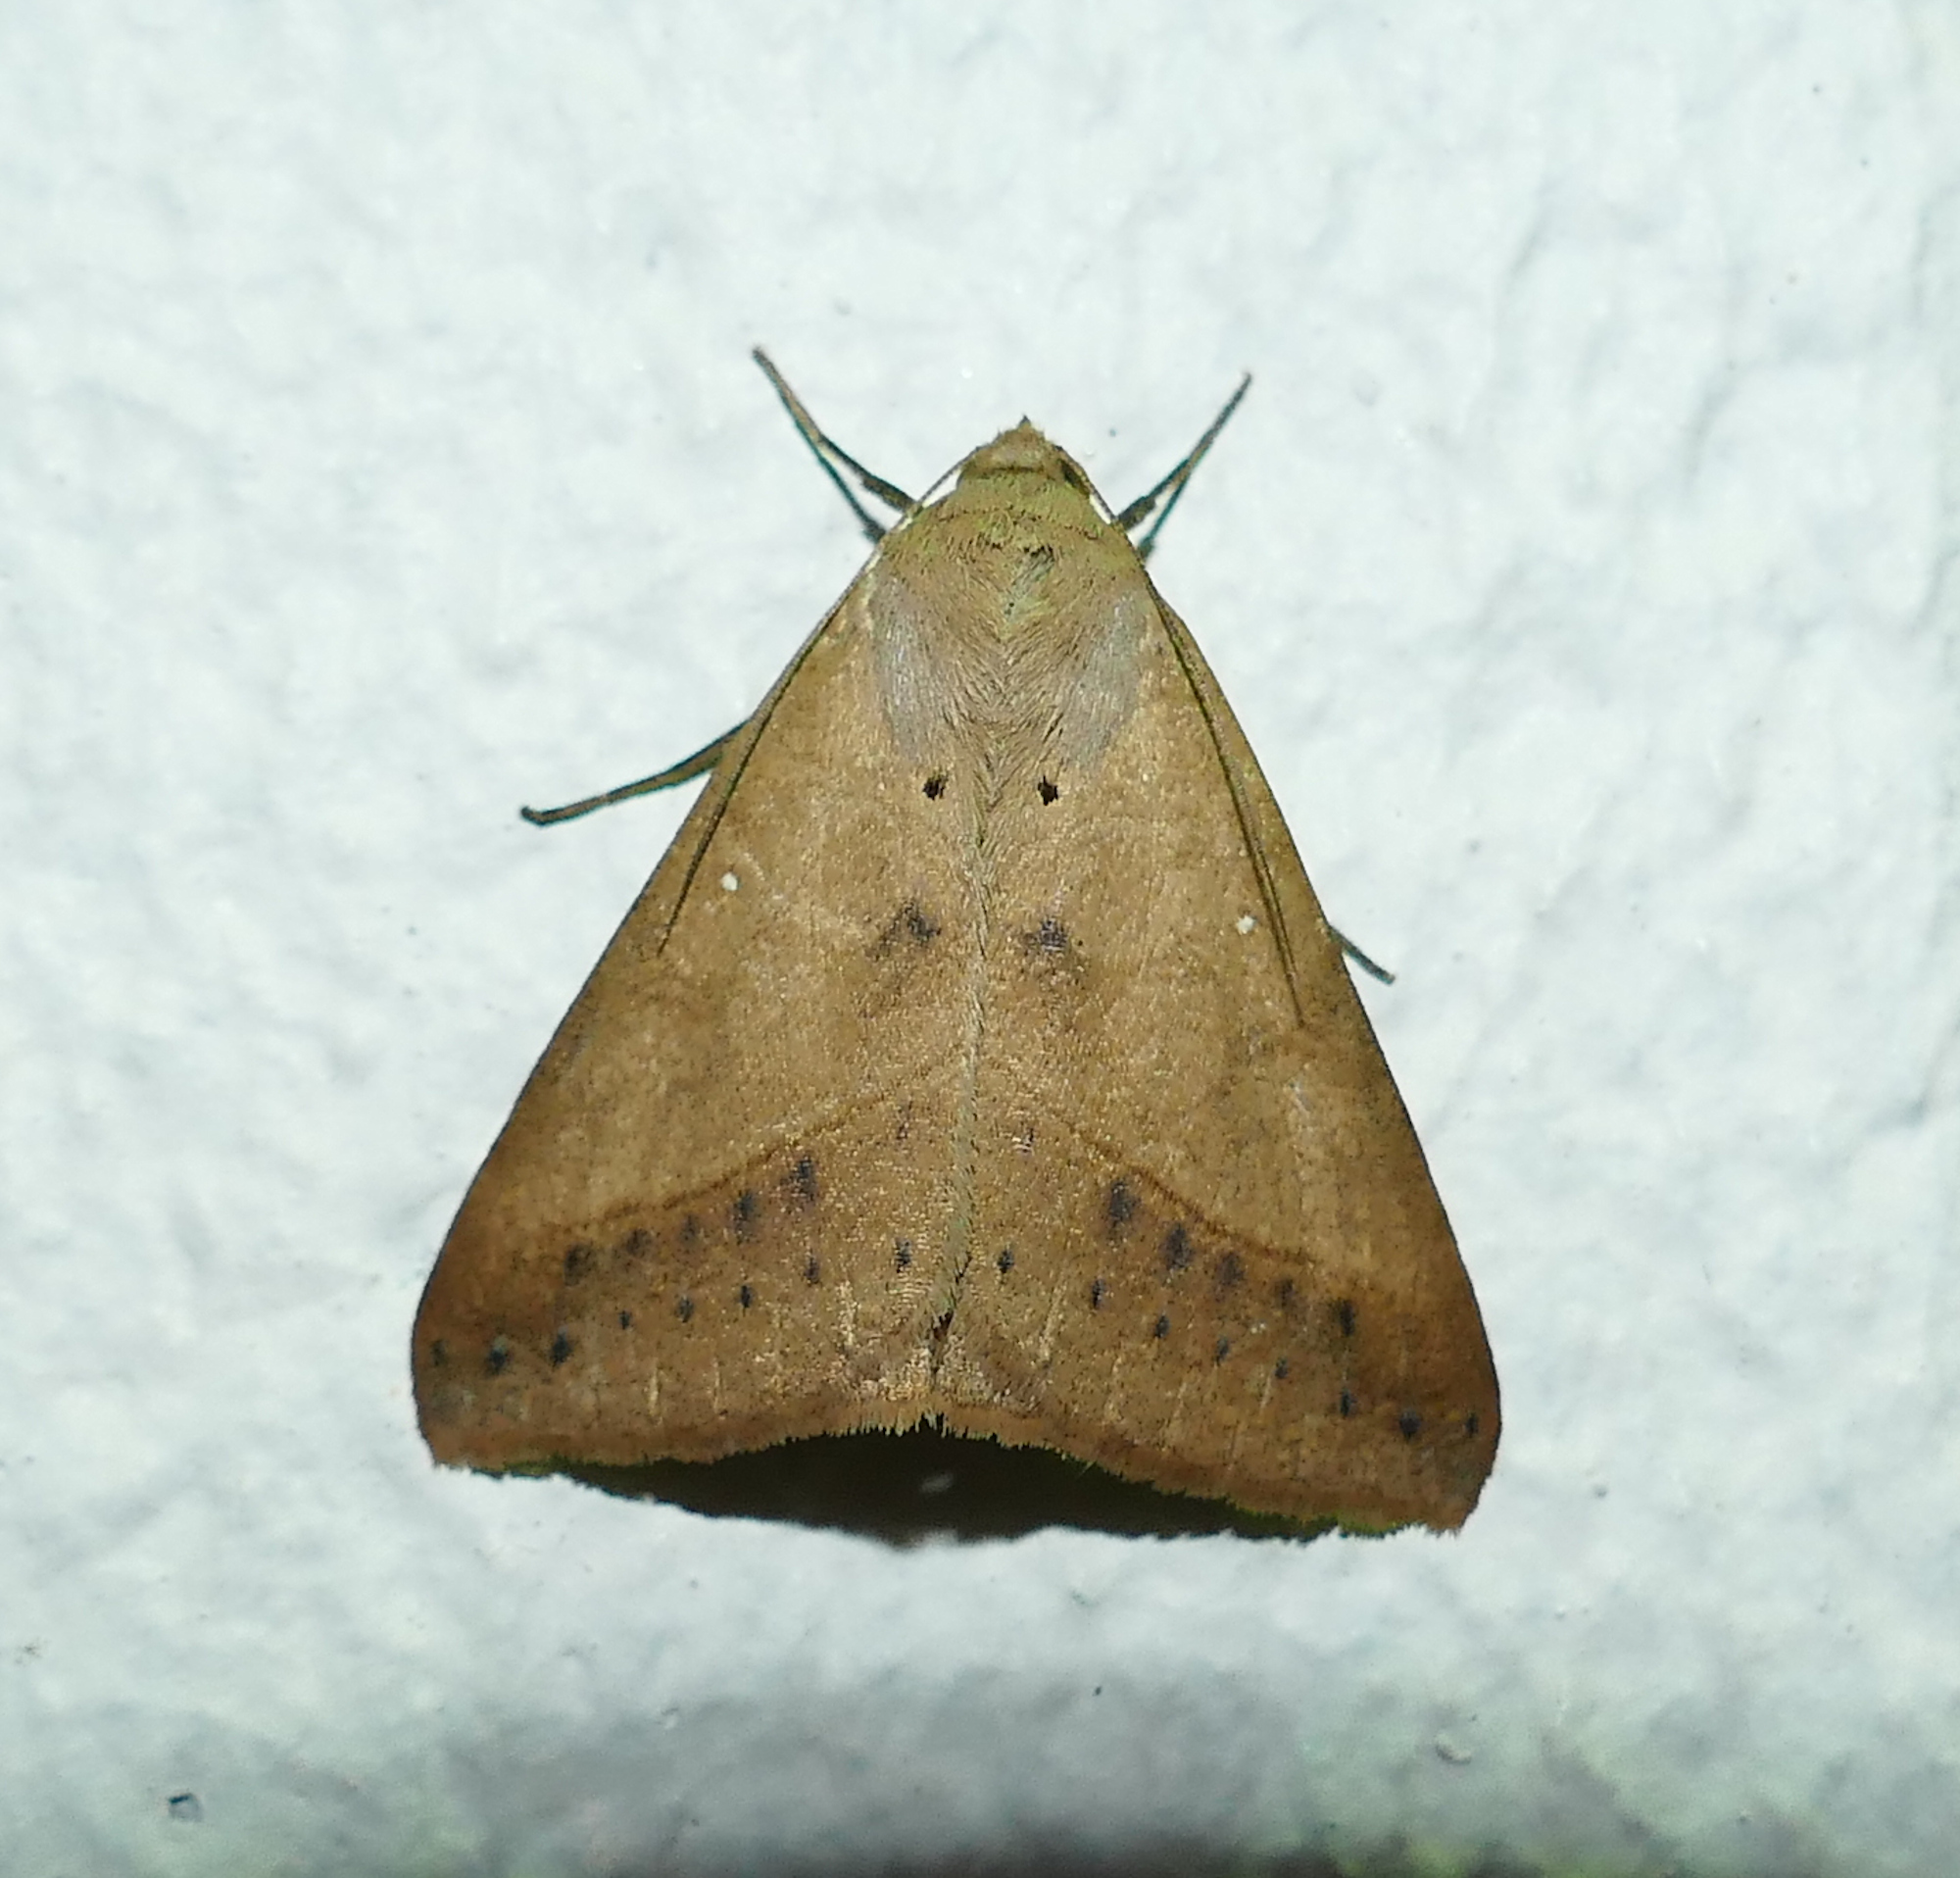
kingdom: Animalia
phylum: Arthropoda
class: Insecta
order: Lepidoptera
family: Erebidae
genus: Mocis
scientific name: Mocis disseverans
